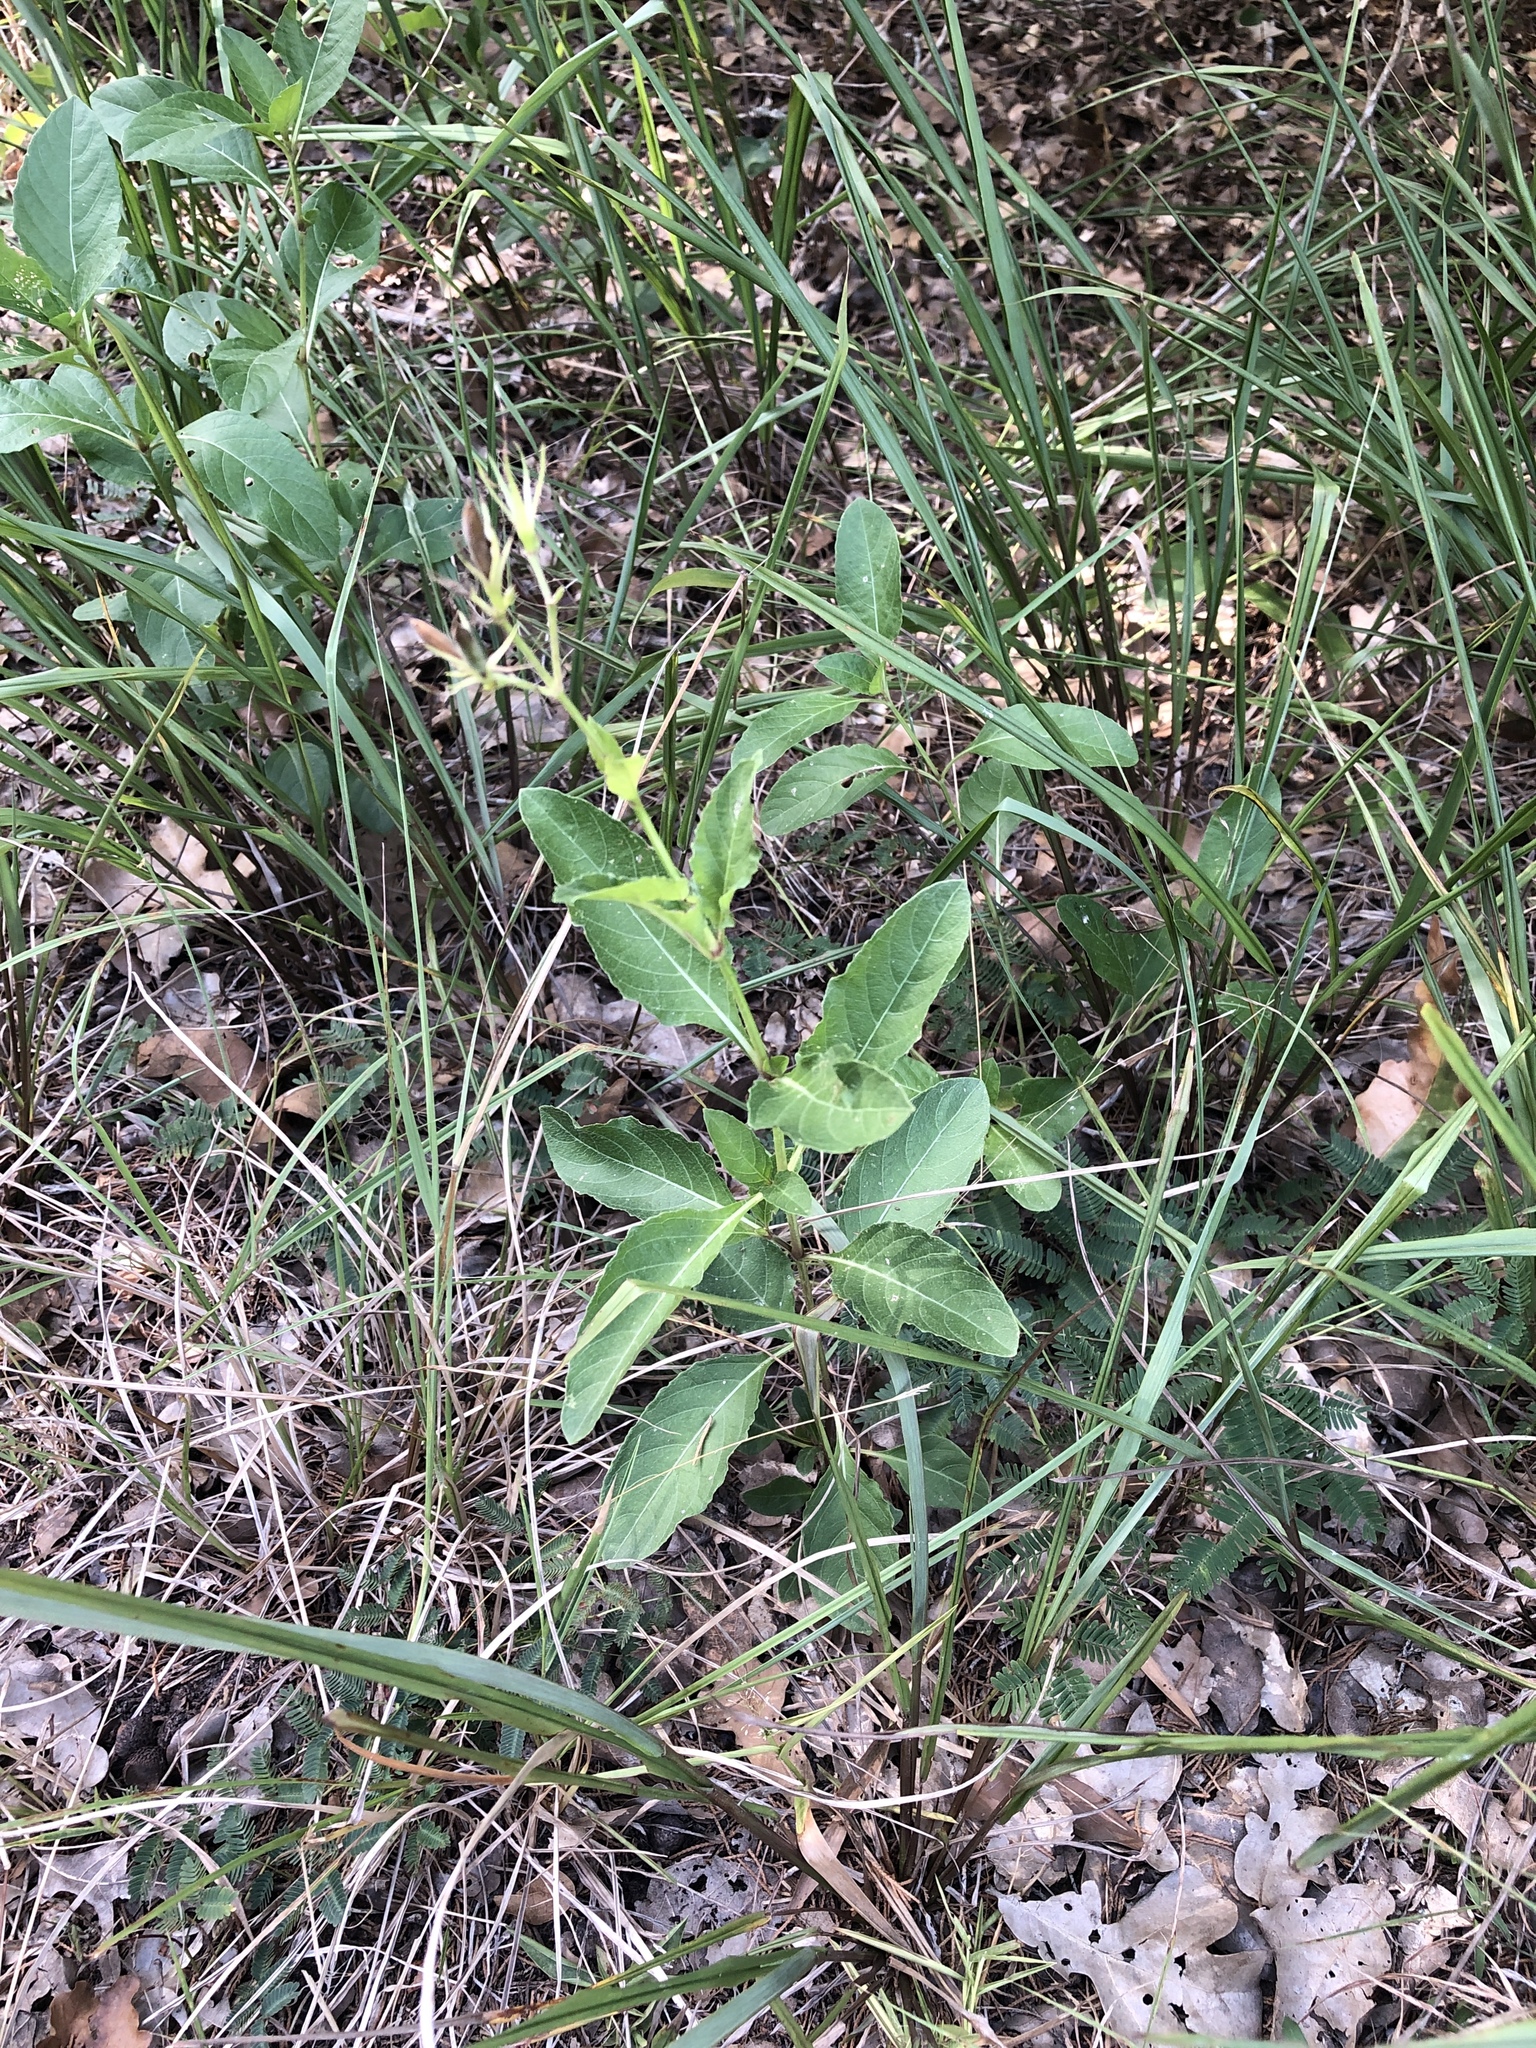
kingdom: Plantae
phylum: Tracheophyta
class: Magnoliopsida
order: Lamiales
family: Acanthaceae
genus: Ruellia
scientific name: Ruellia ciliatiflora
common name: Hairyflower wild petunia
